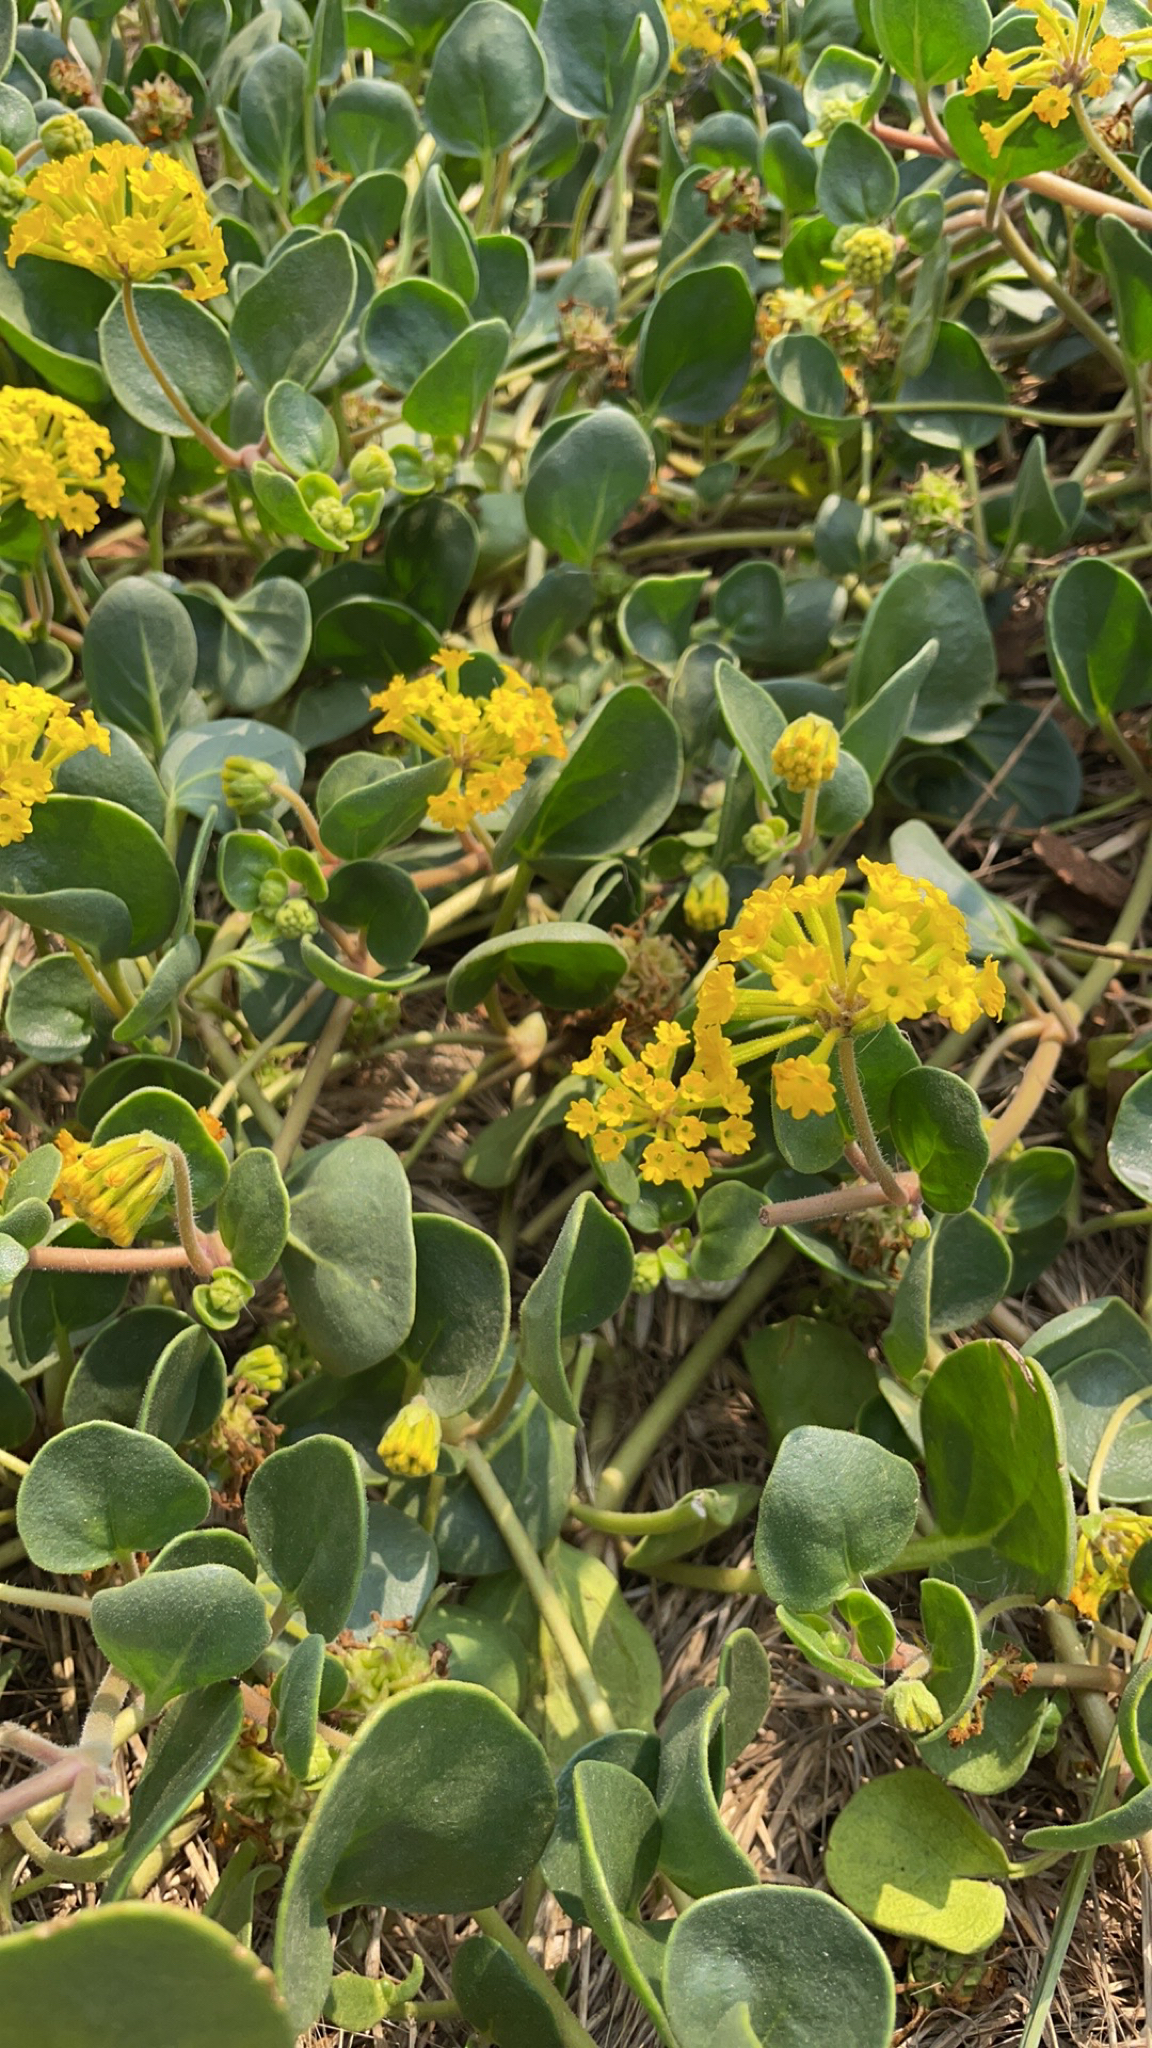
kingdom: Plantae
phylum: Tracheophyta
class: Magnoliopsida
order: Caryophyllales
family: Nyctaginaceae
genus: Abronia
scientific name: Abronia latifolia
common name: Yellow sand-verbena
